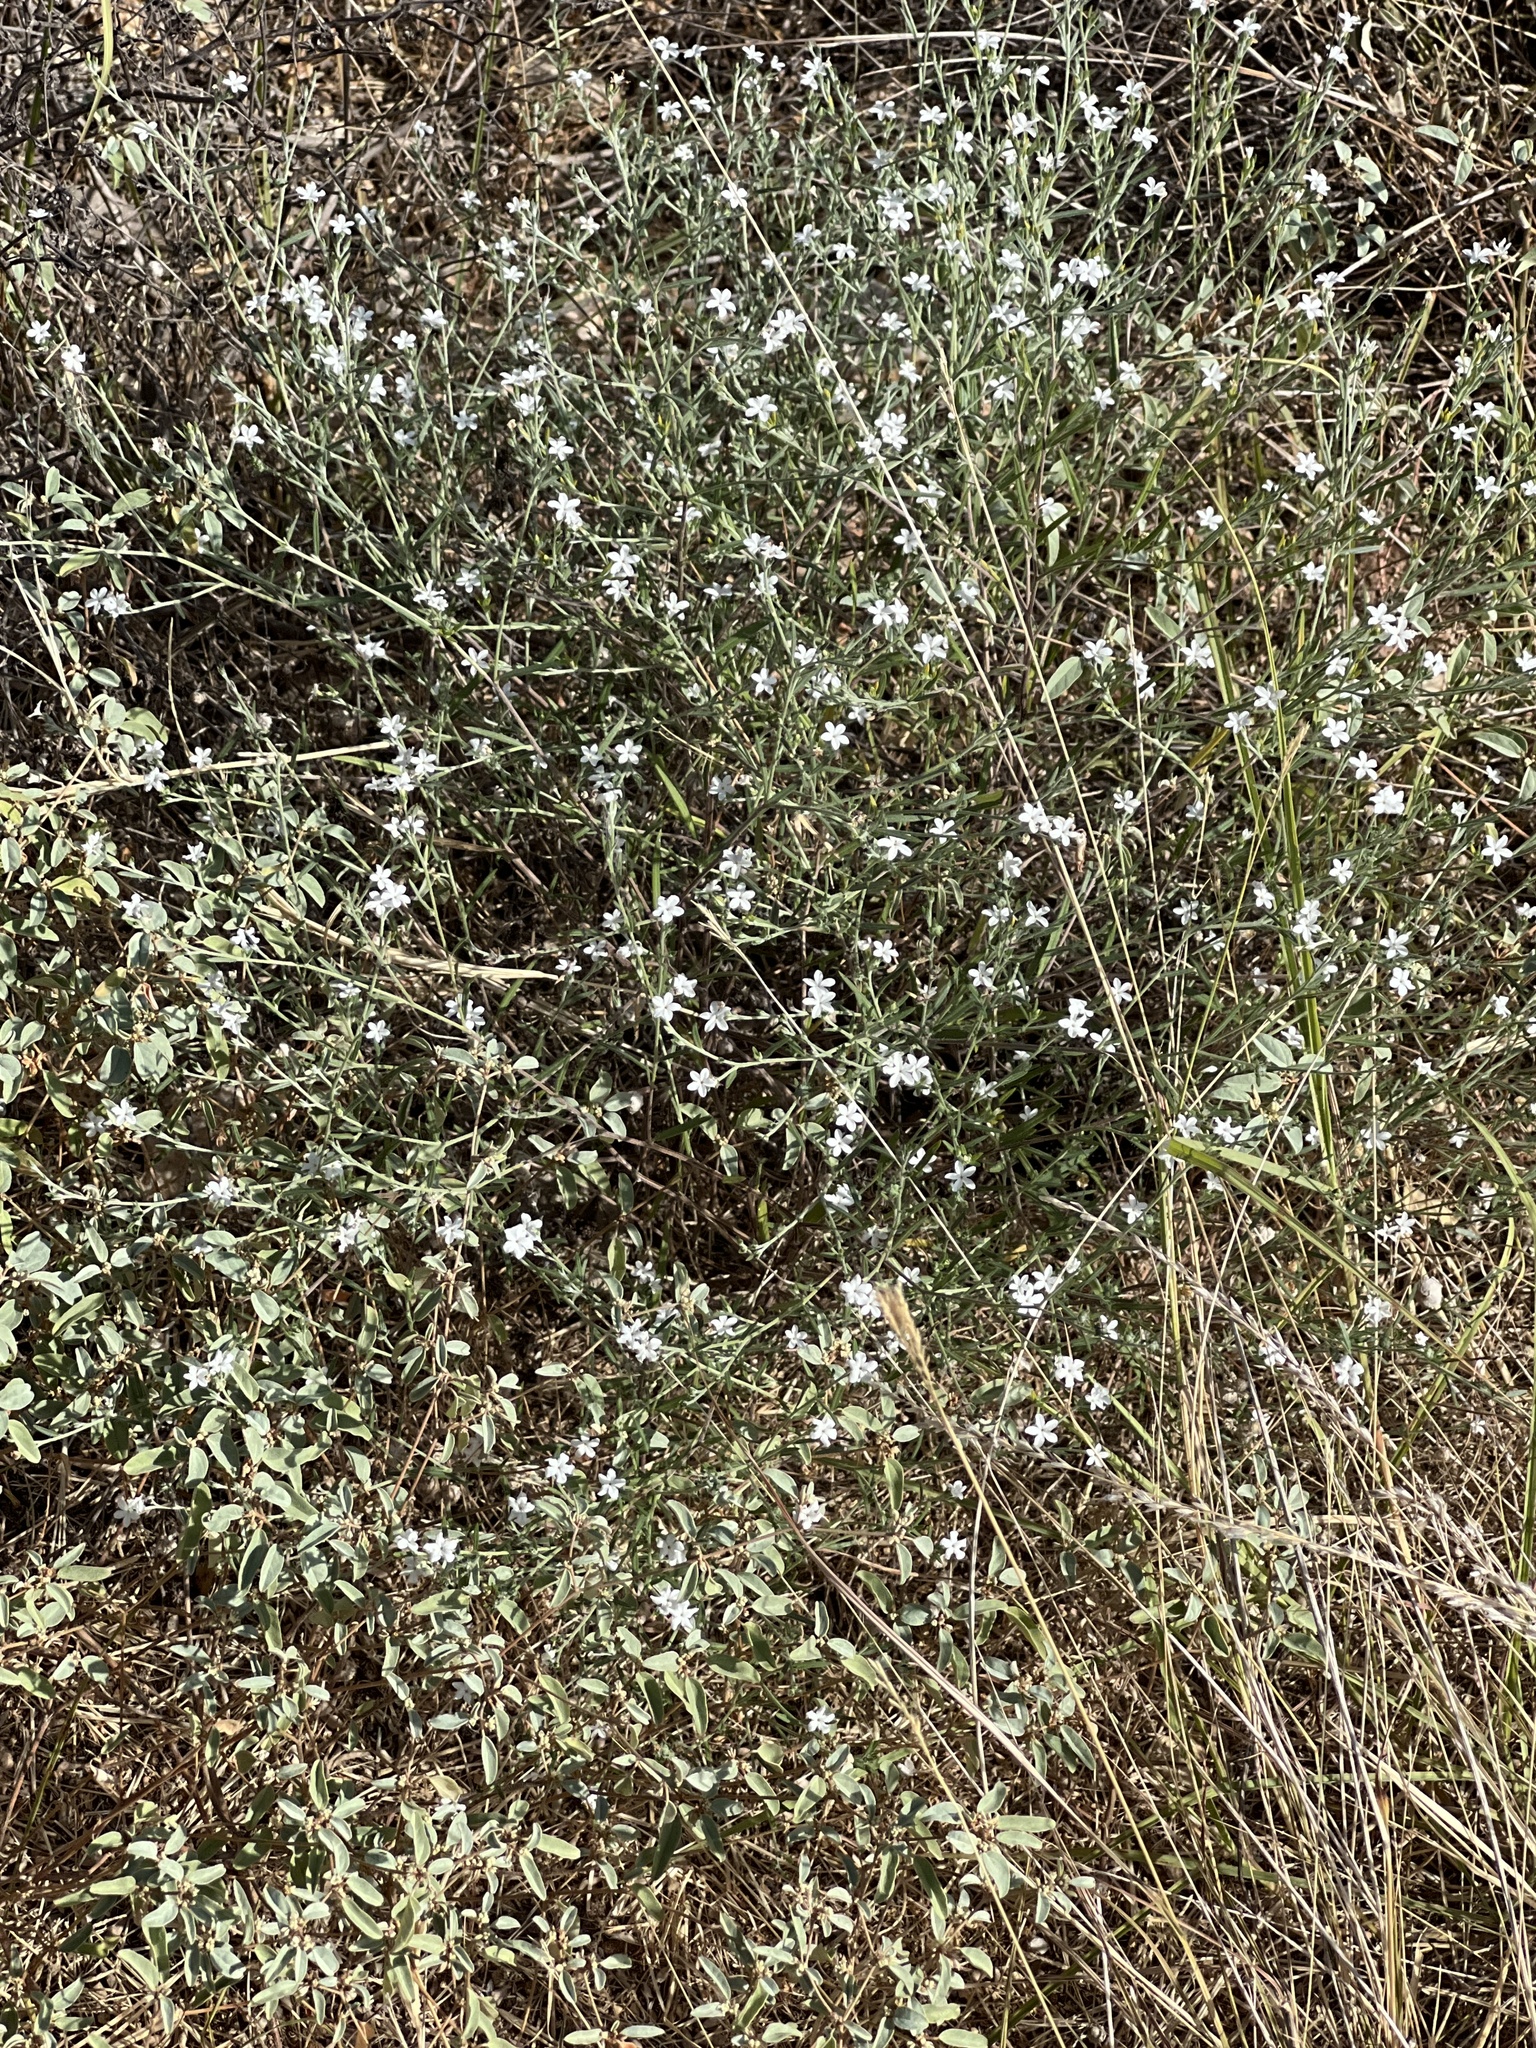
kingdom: Plantae
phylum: Tracheophyta
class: Magnoliopsida
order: Boraginales
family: Heliotropiaceae
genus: Euploca
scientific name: Euploca tenella
